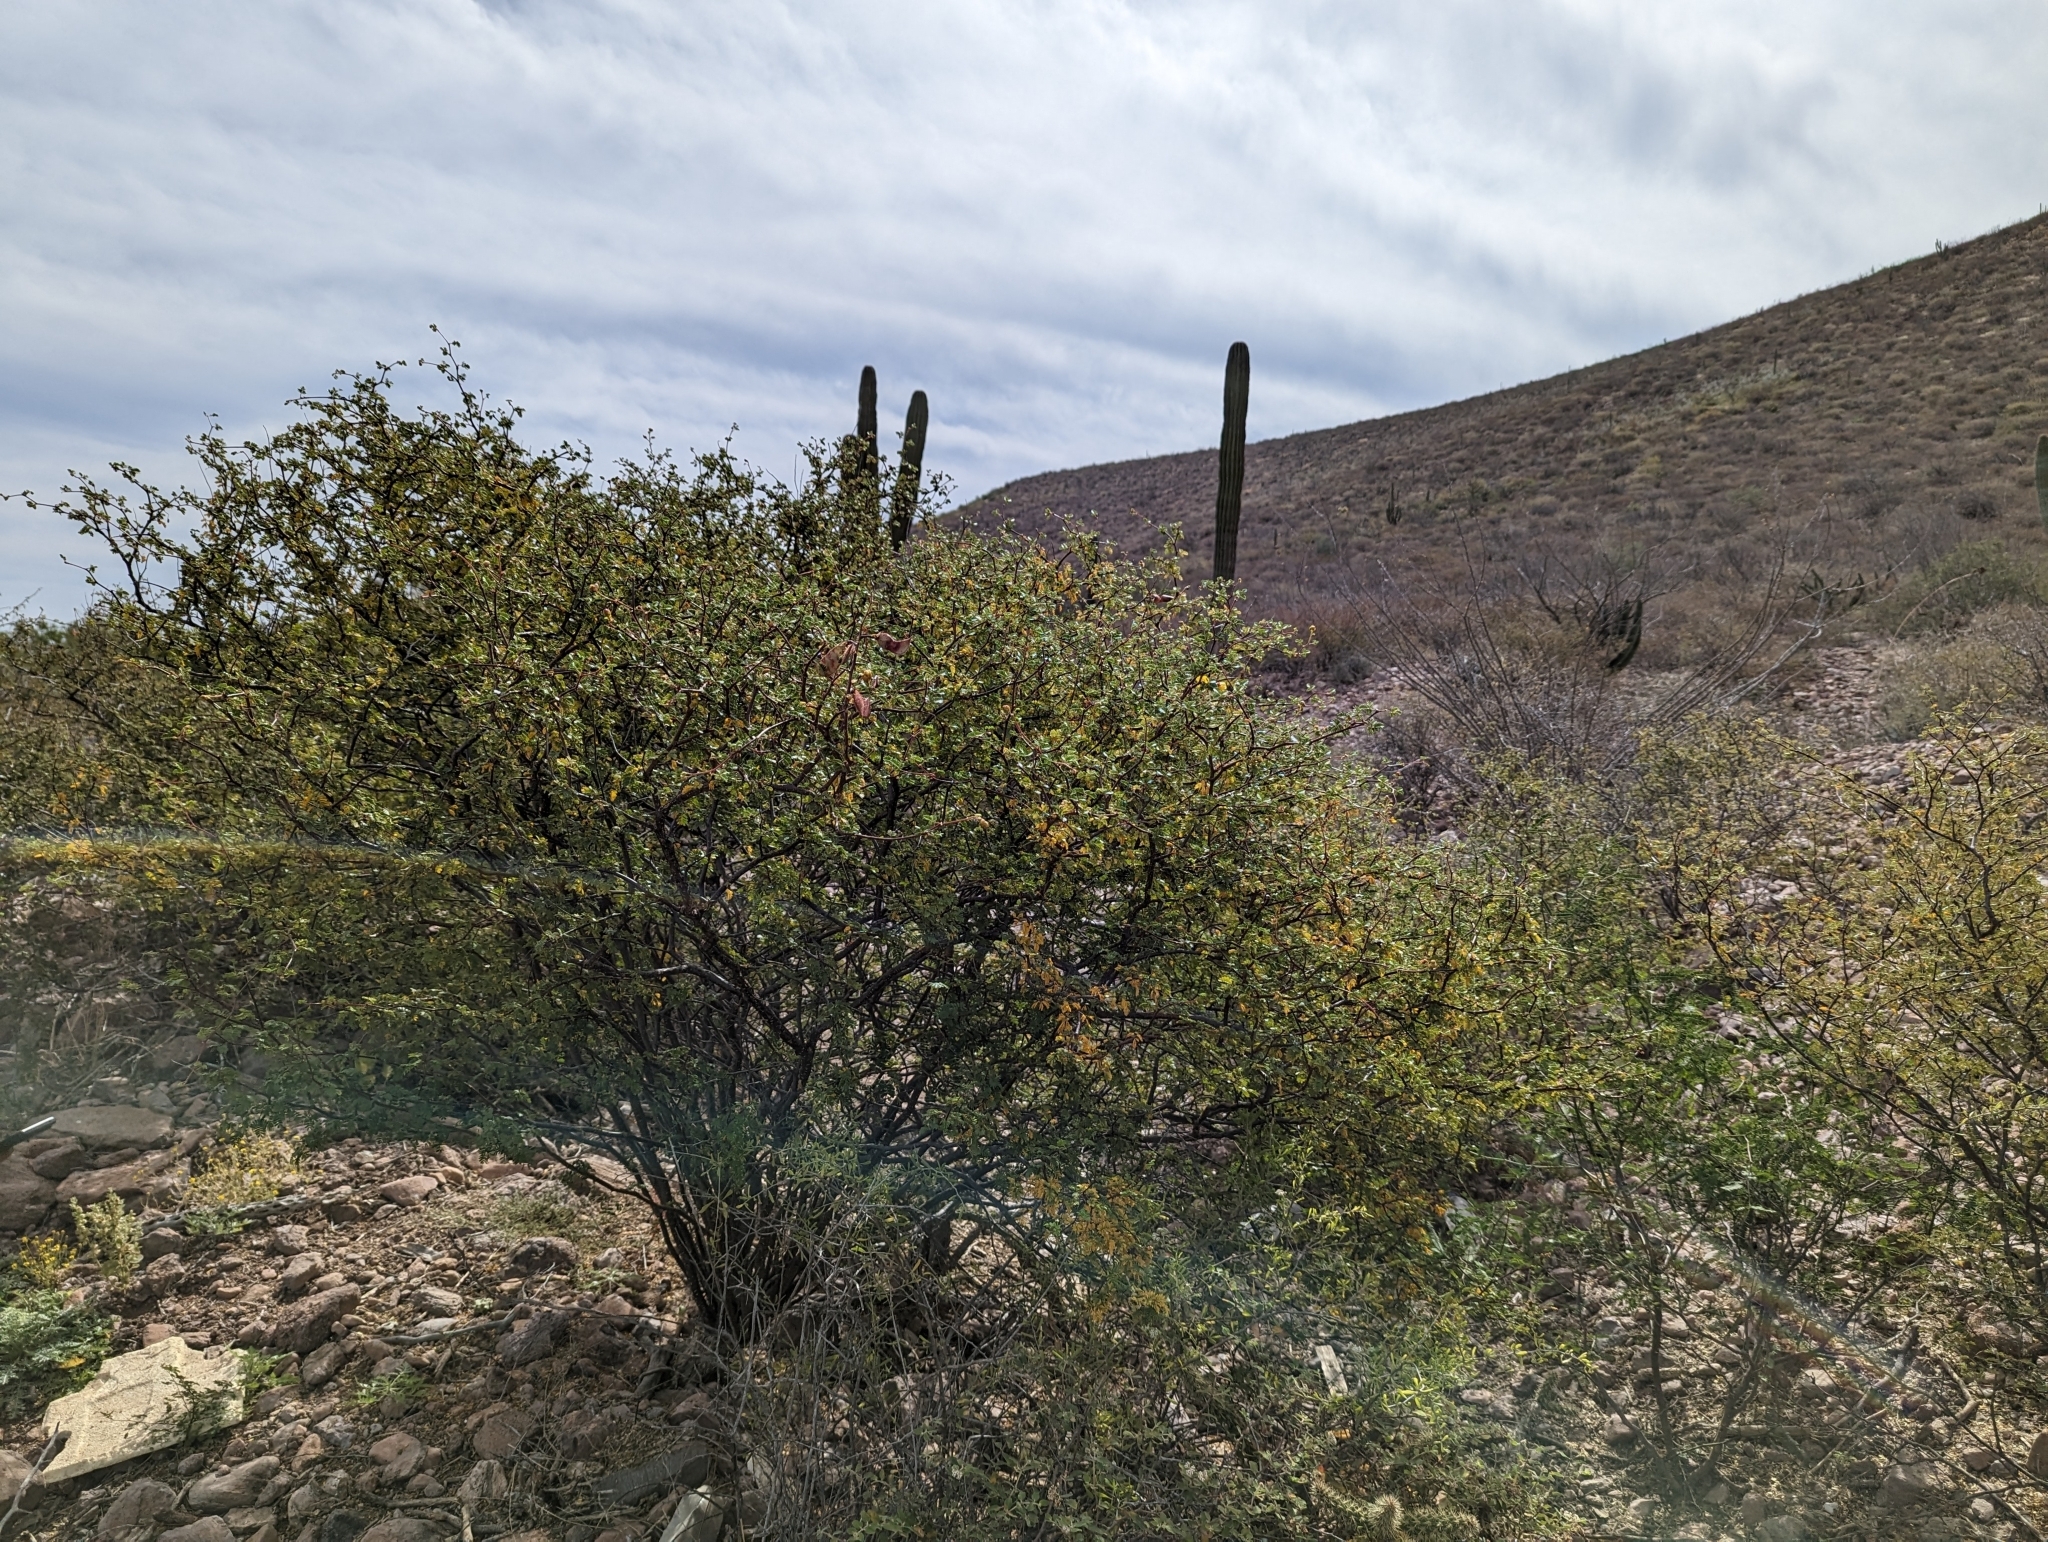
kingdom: Plantae
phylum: Tracheophyta
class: Magnoliopsida
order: Fabales
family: Fabaceae
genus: Erythrostemon
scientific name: Erythrostemon placidus
